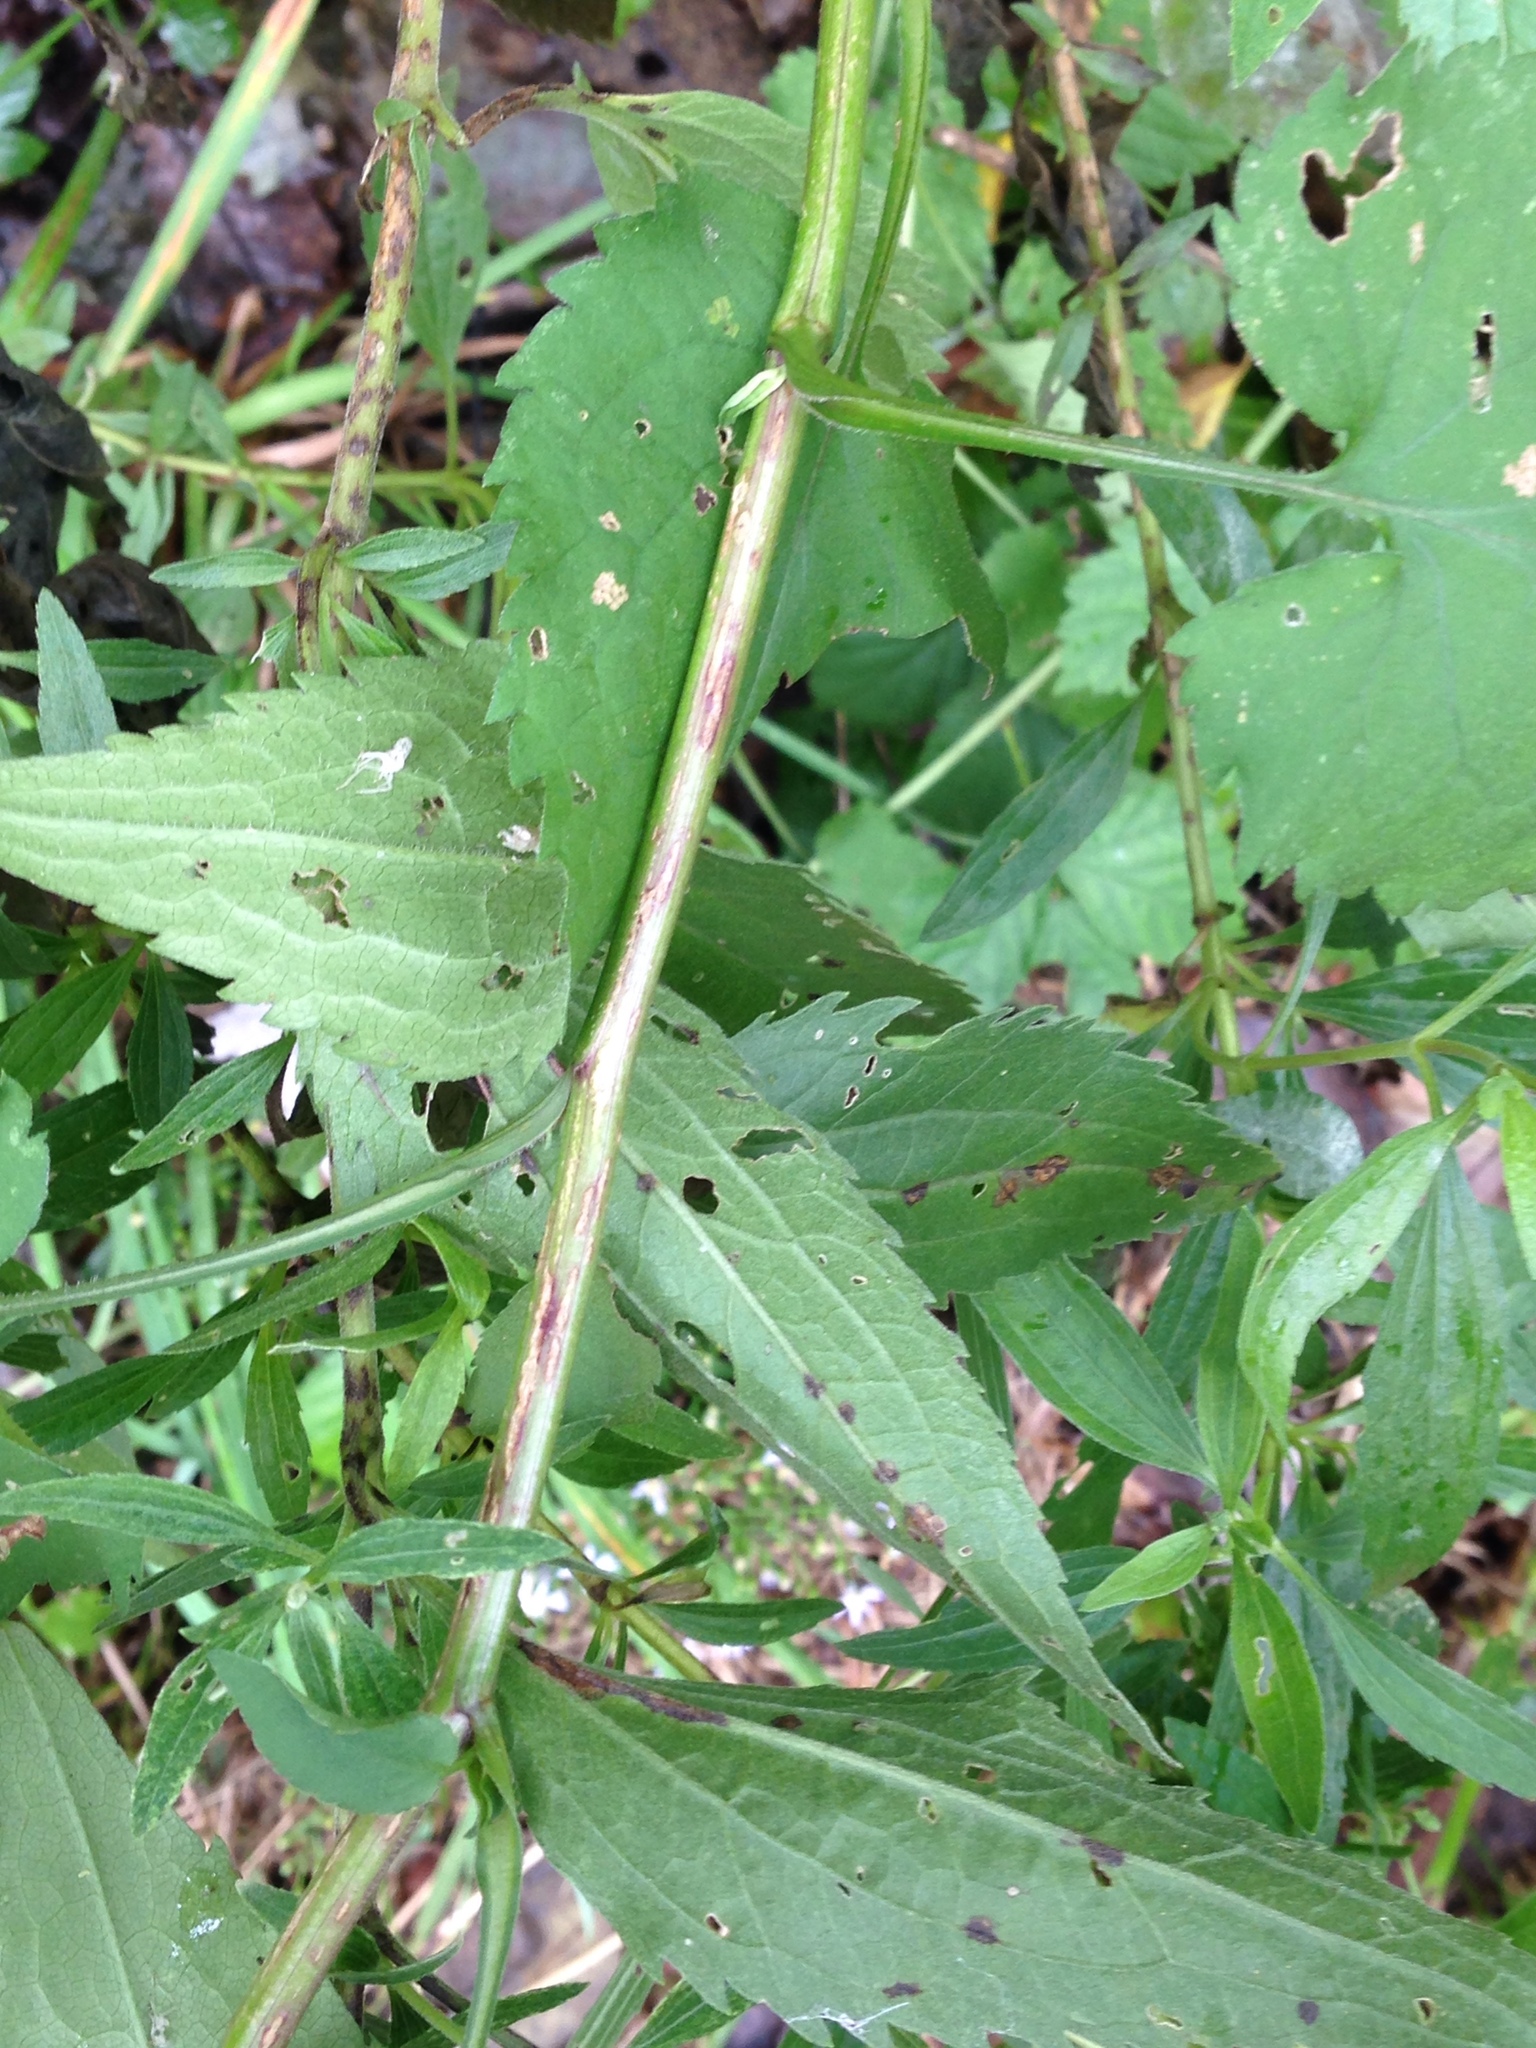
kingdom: Plantae
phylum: Tracheophyta
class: Magnoliopsida
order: Asterales
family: Asteraceae
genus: Symphyotrichum
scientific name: Symphyotrichum cordifolium
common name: Beeweed
